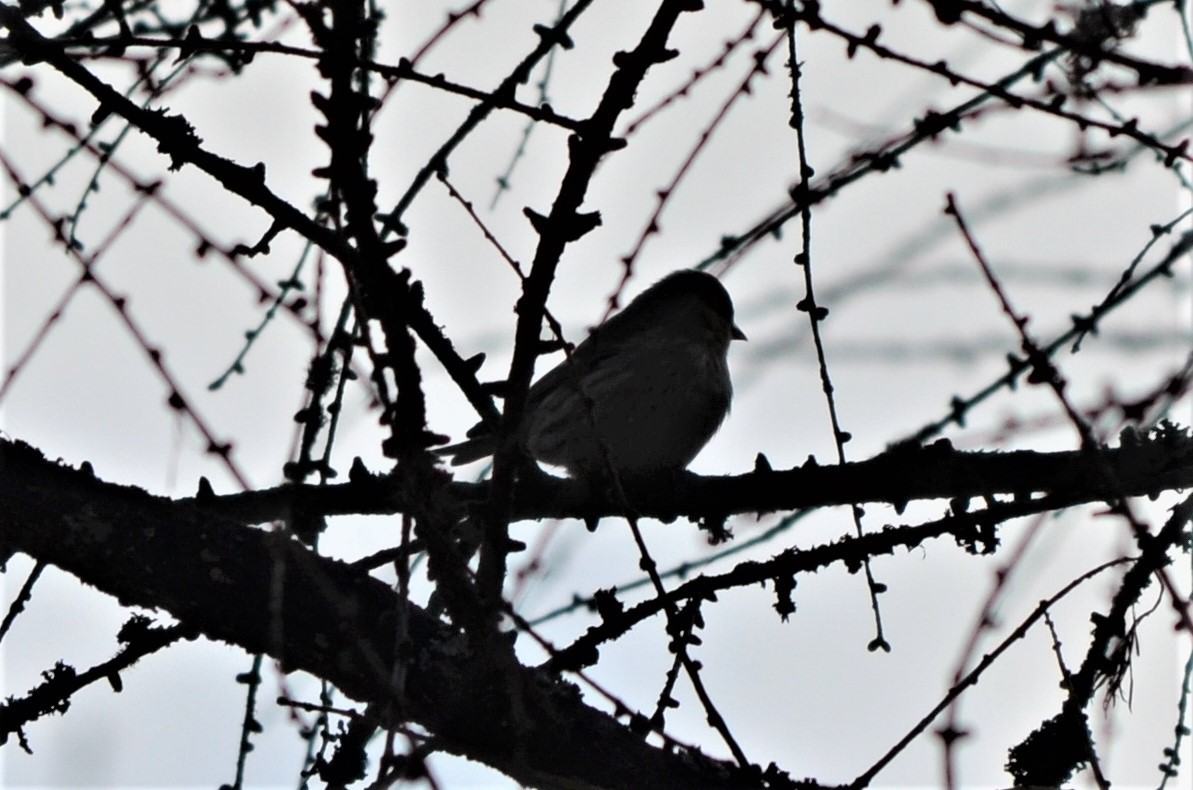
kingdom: Animalia
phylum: Chordata
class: Aves
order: Passeriformes
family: Fringillidae
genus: Spinus
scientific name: Spinus spinus
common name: Eurasian siskin
